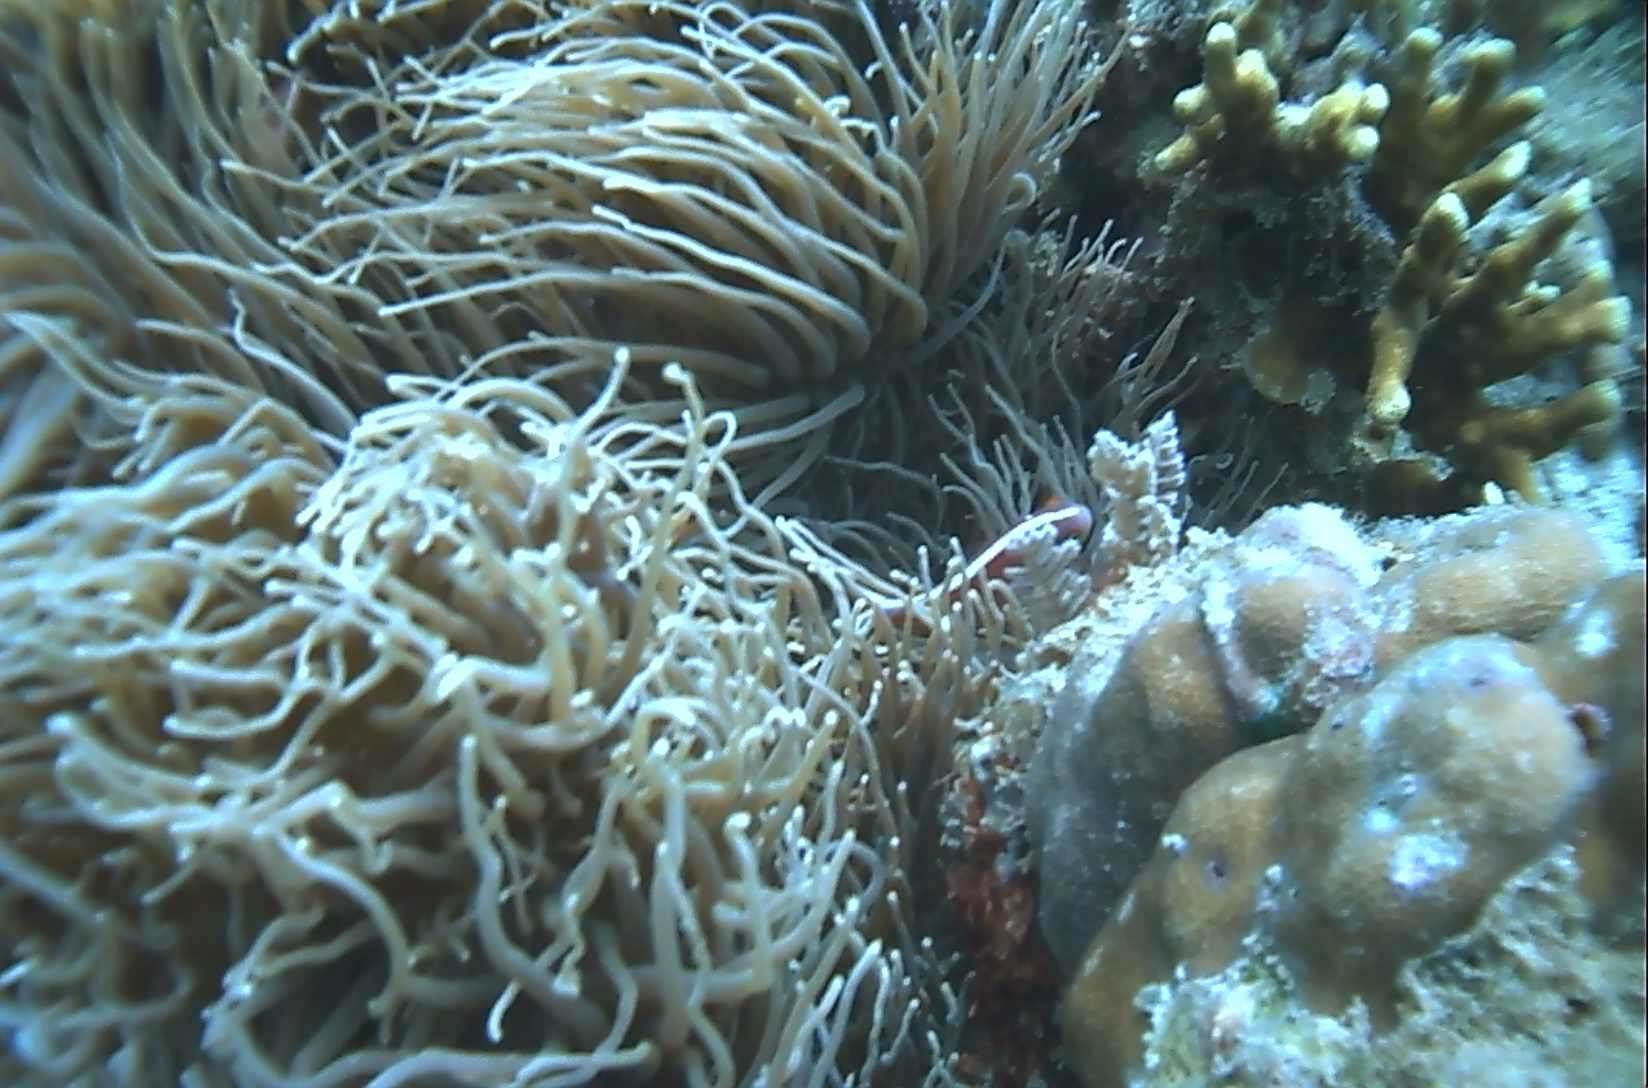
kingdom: Animalia
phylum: Cnidaria
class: Anthozoa
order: Actiniaria
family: Stichodactylidae
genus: Radianthus
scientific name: Radianthus crispa
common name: Leather anemone
